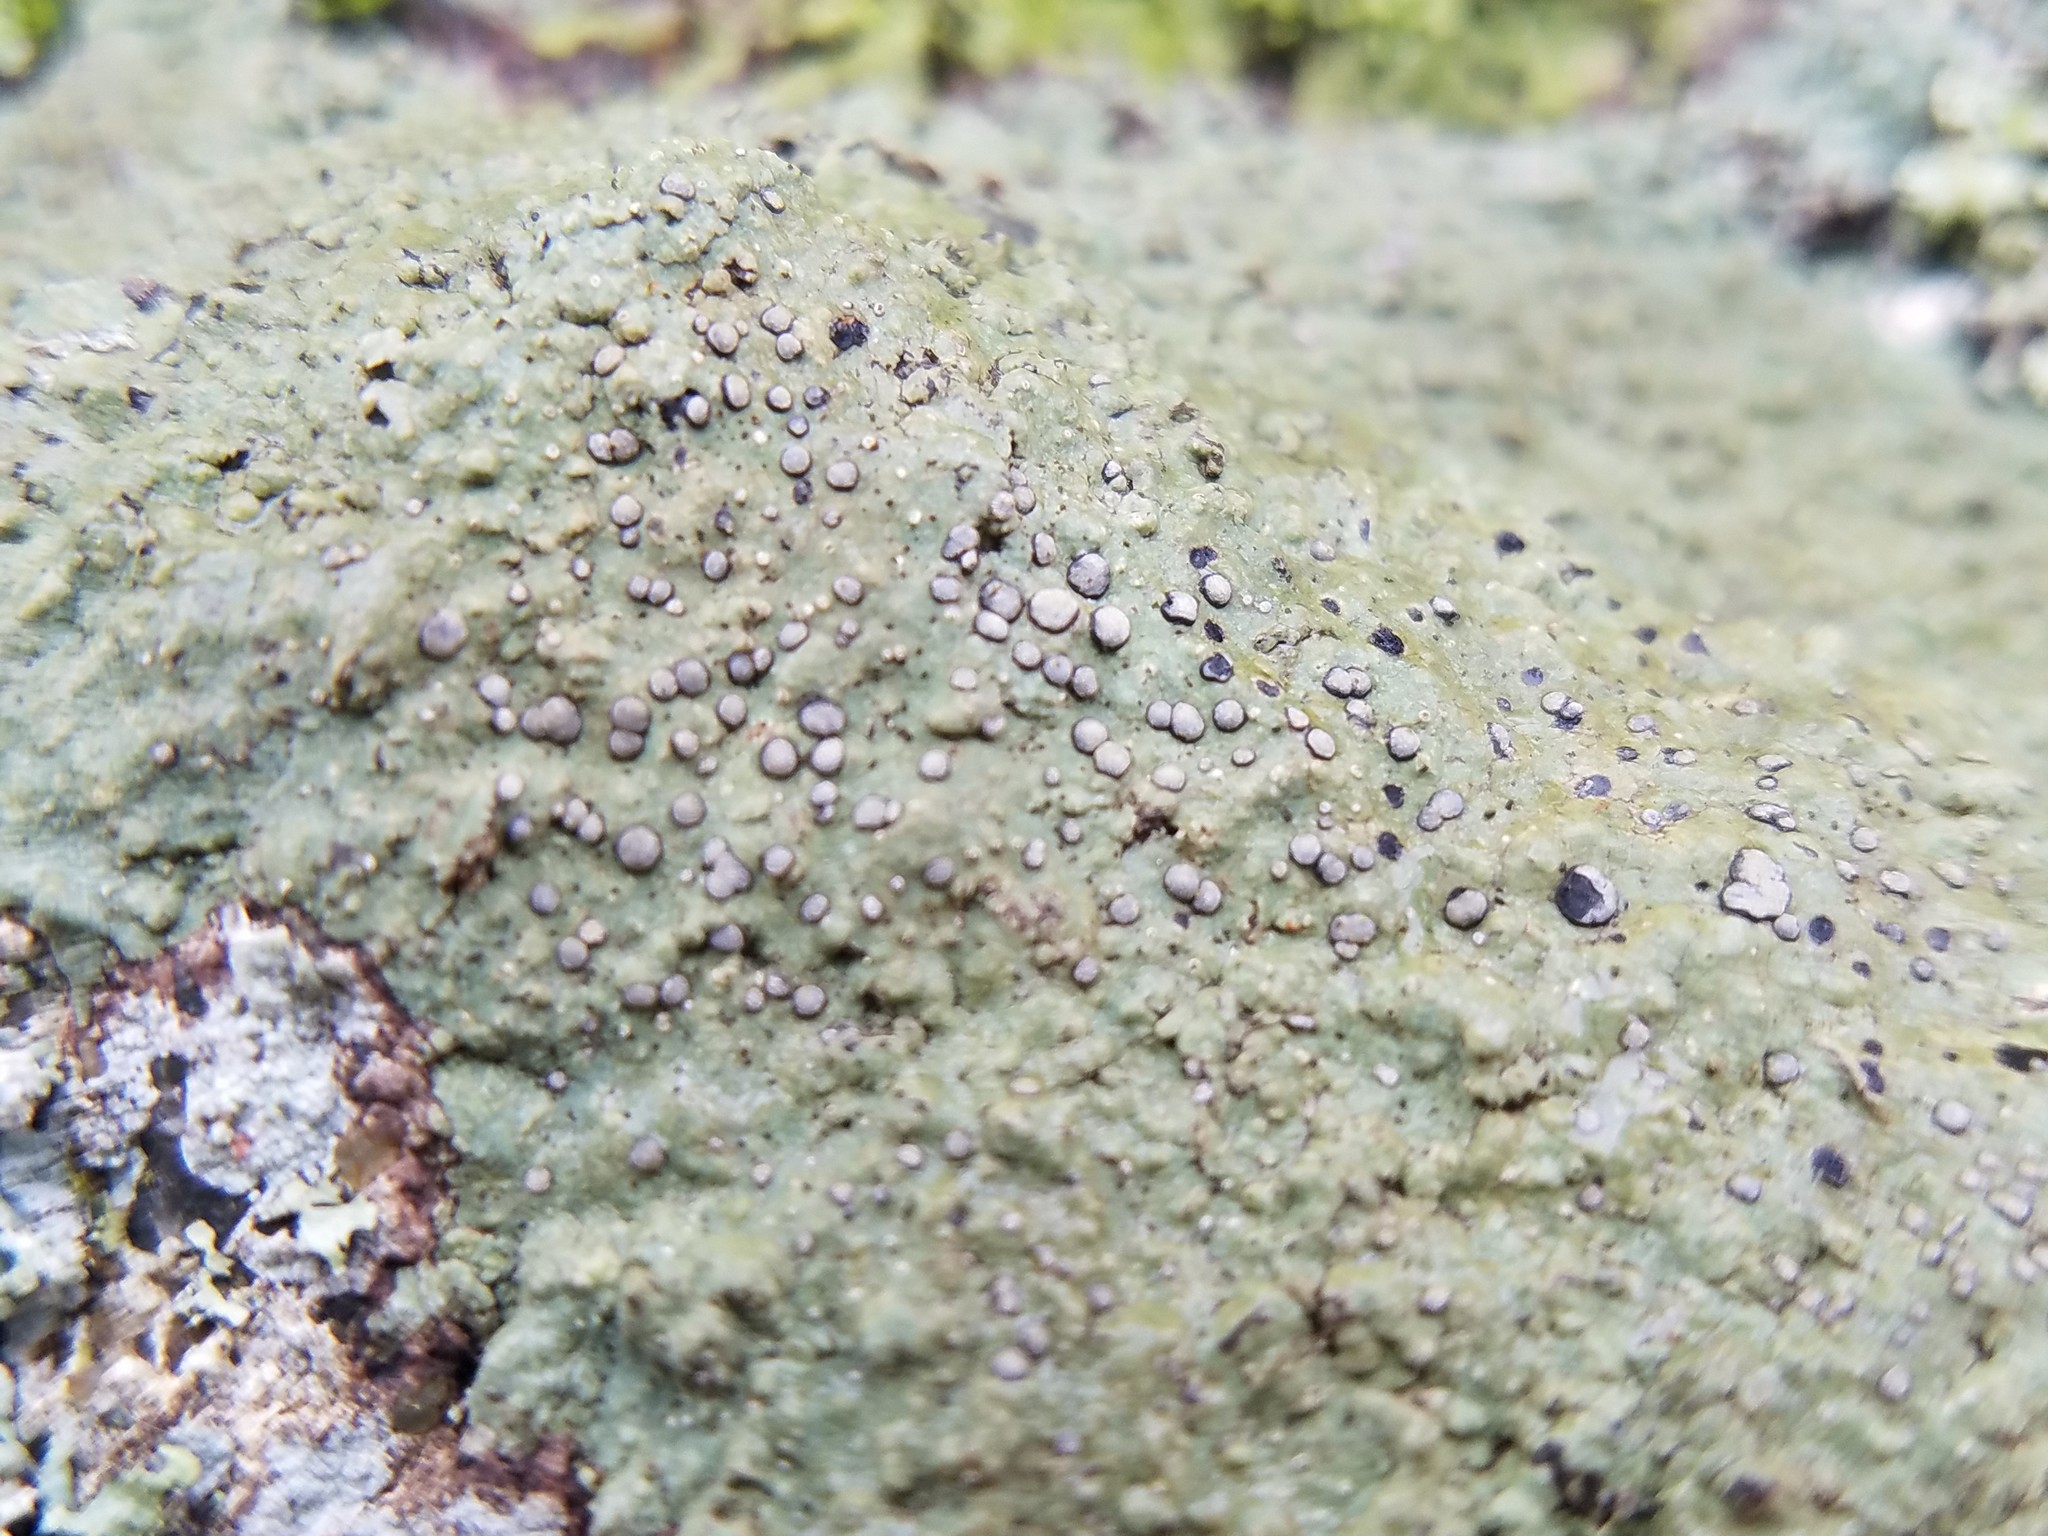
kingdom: Fungi
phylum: Ascomycota
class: Lecanoromycetes
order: Lecideales
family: Lecideaceae
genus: Porpidia
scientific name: Porpidia albocaerulescens
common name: Smokey-eyed boulder lichen
